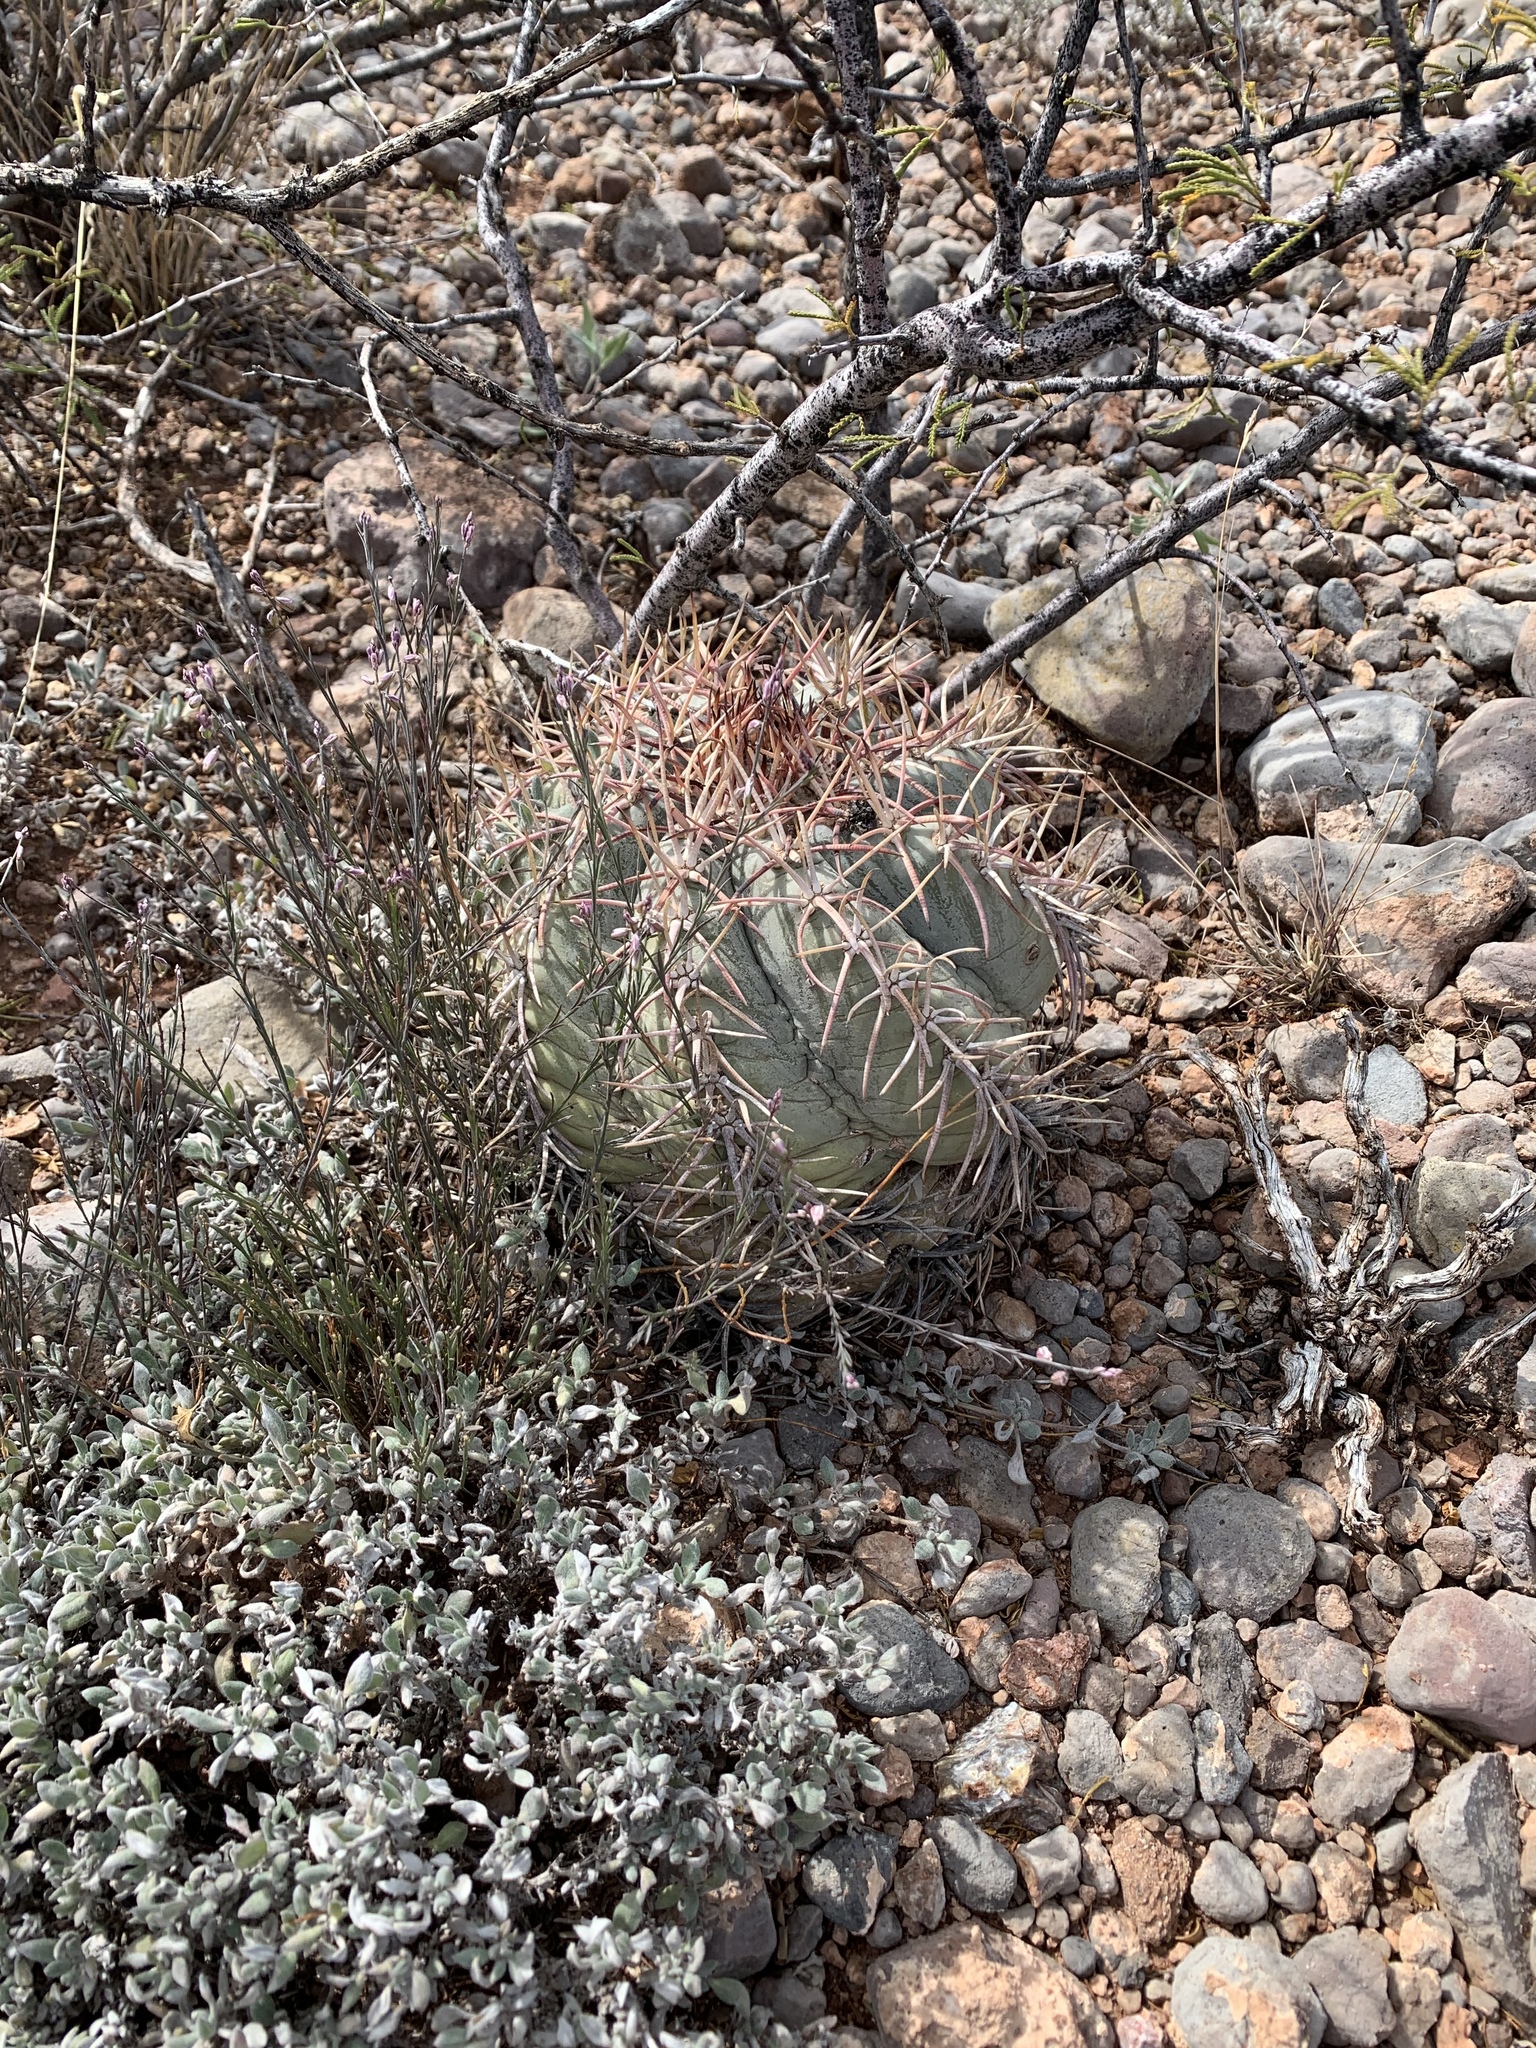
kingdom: Plantae
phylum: Tracheophyta
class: Magnoliopsida
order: Caryophyllales
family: Cactaceae
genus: Echinocactus
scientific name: Echinocactus horizonthalonius
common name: Devilshead
